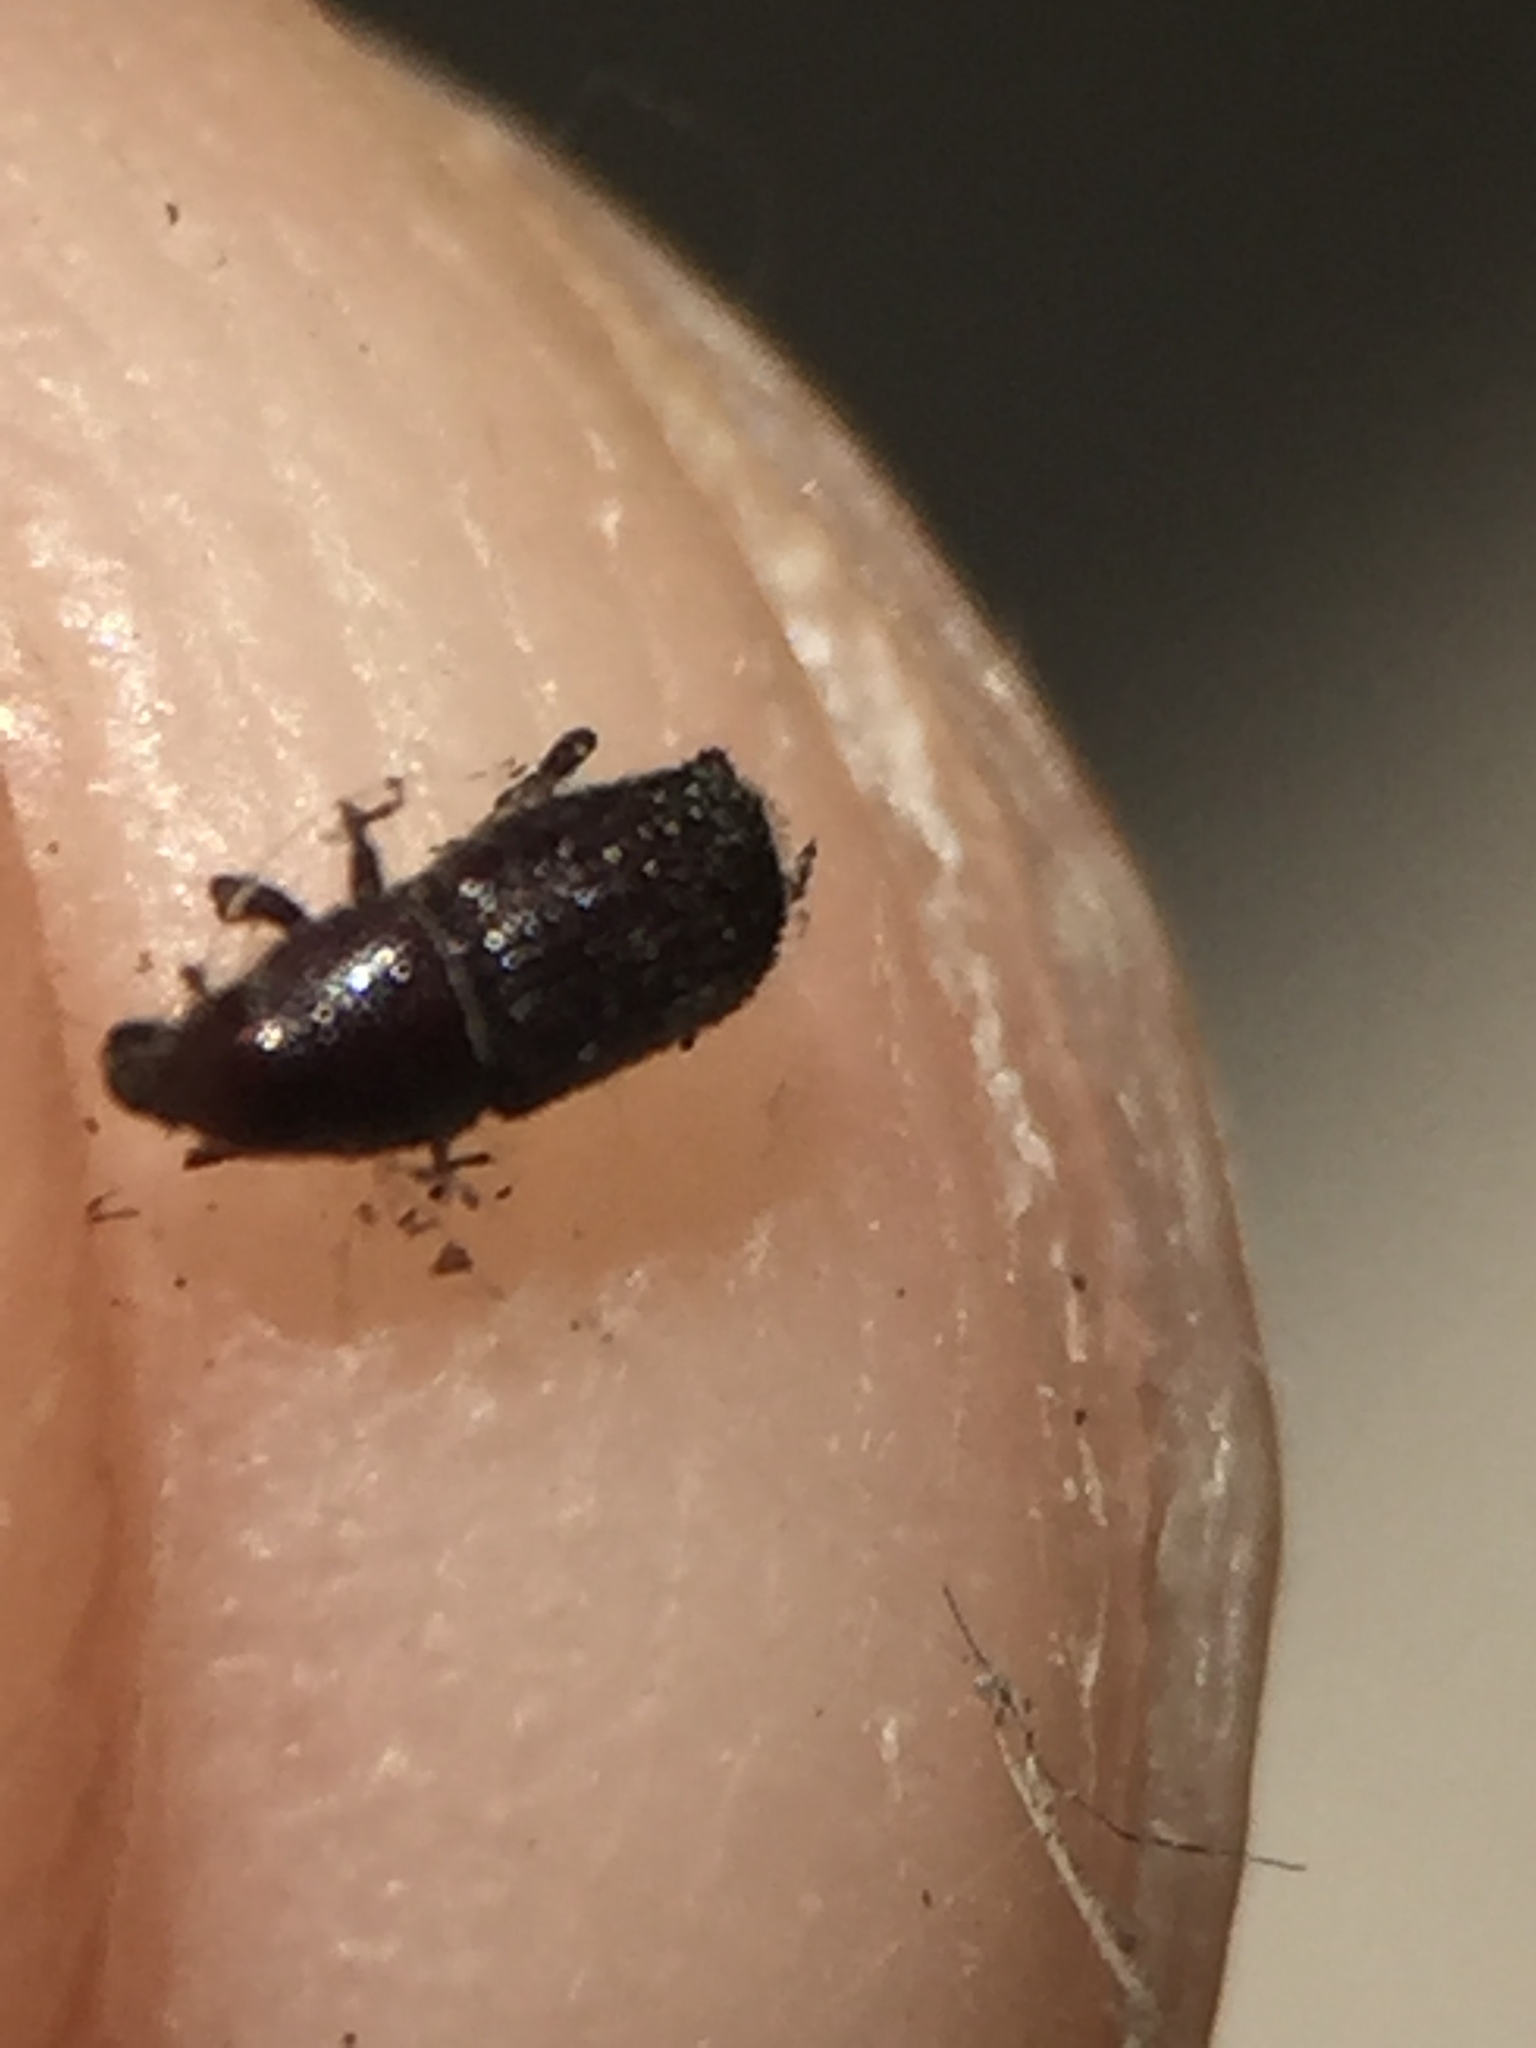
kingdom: Animalia
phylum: Arthropoda
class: Insecta
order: Coleoptera
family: Curculionidae
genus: Inosomus
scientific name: Inosomus rufopiceus
